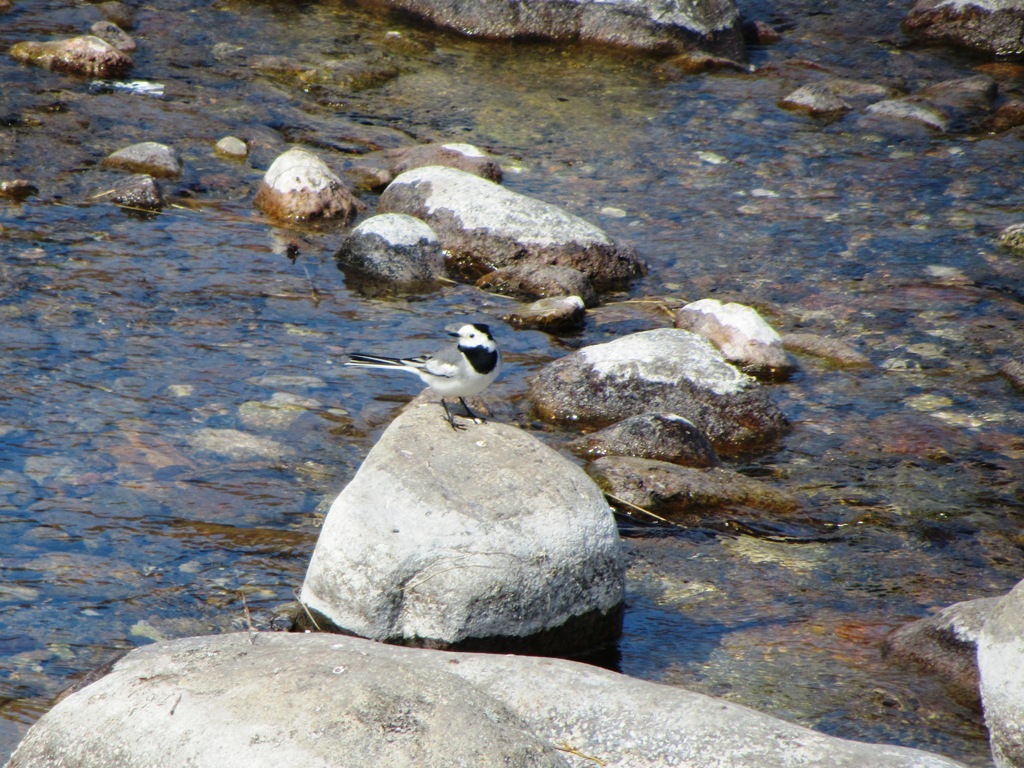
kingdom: Animalia
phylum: Chordata
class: Aves
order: Passeriformes
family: Motacillidae
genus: Motacilla
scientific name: Motacilla alba
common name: White wagtail
